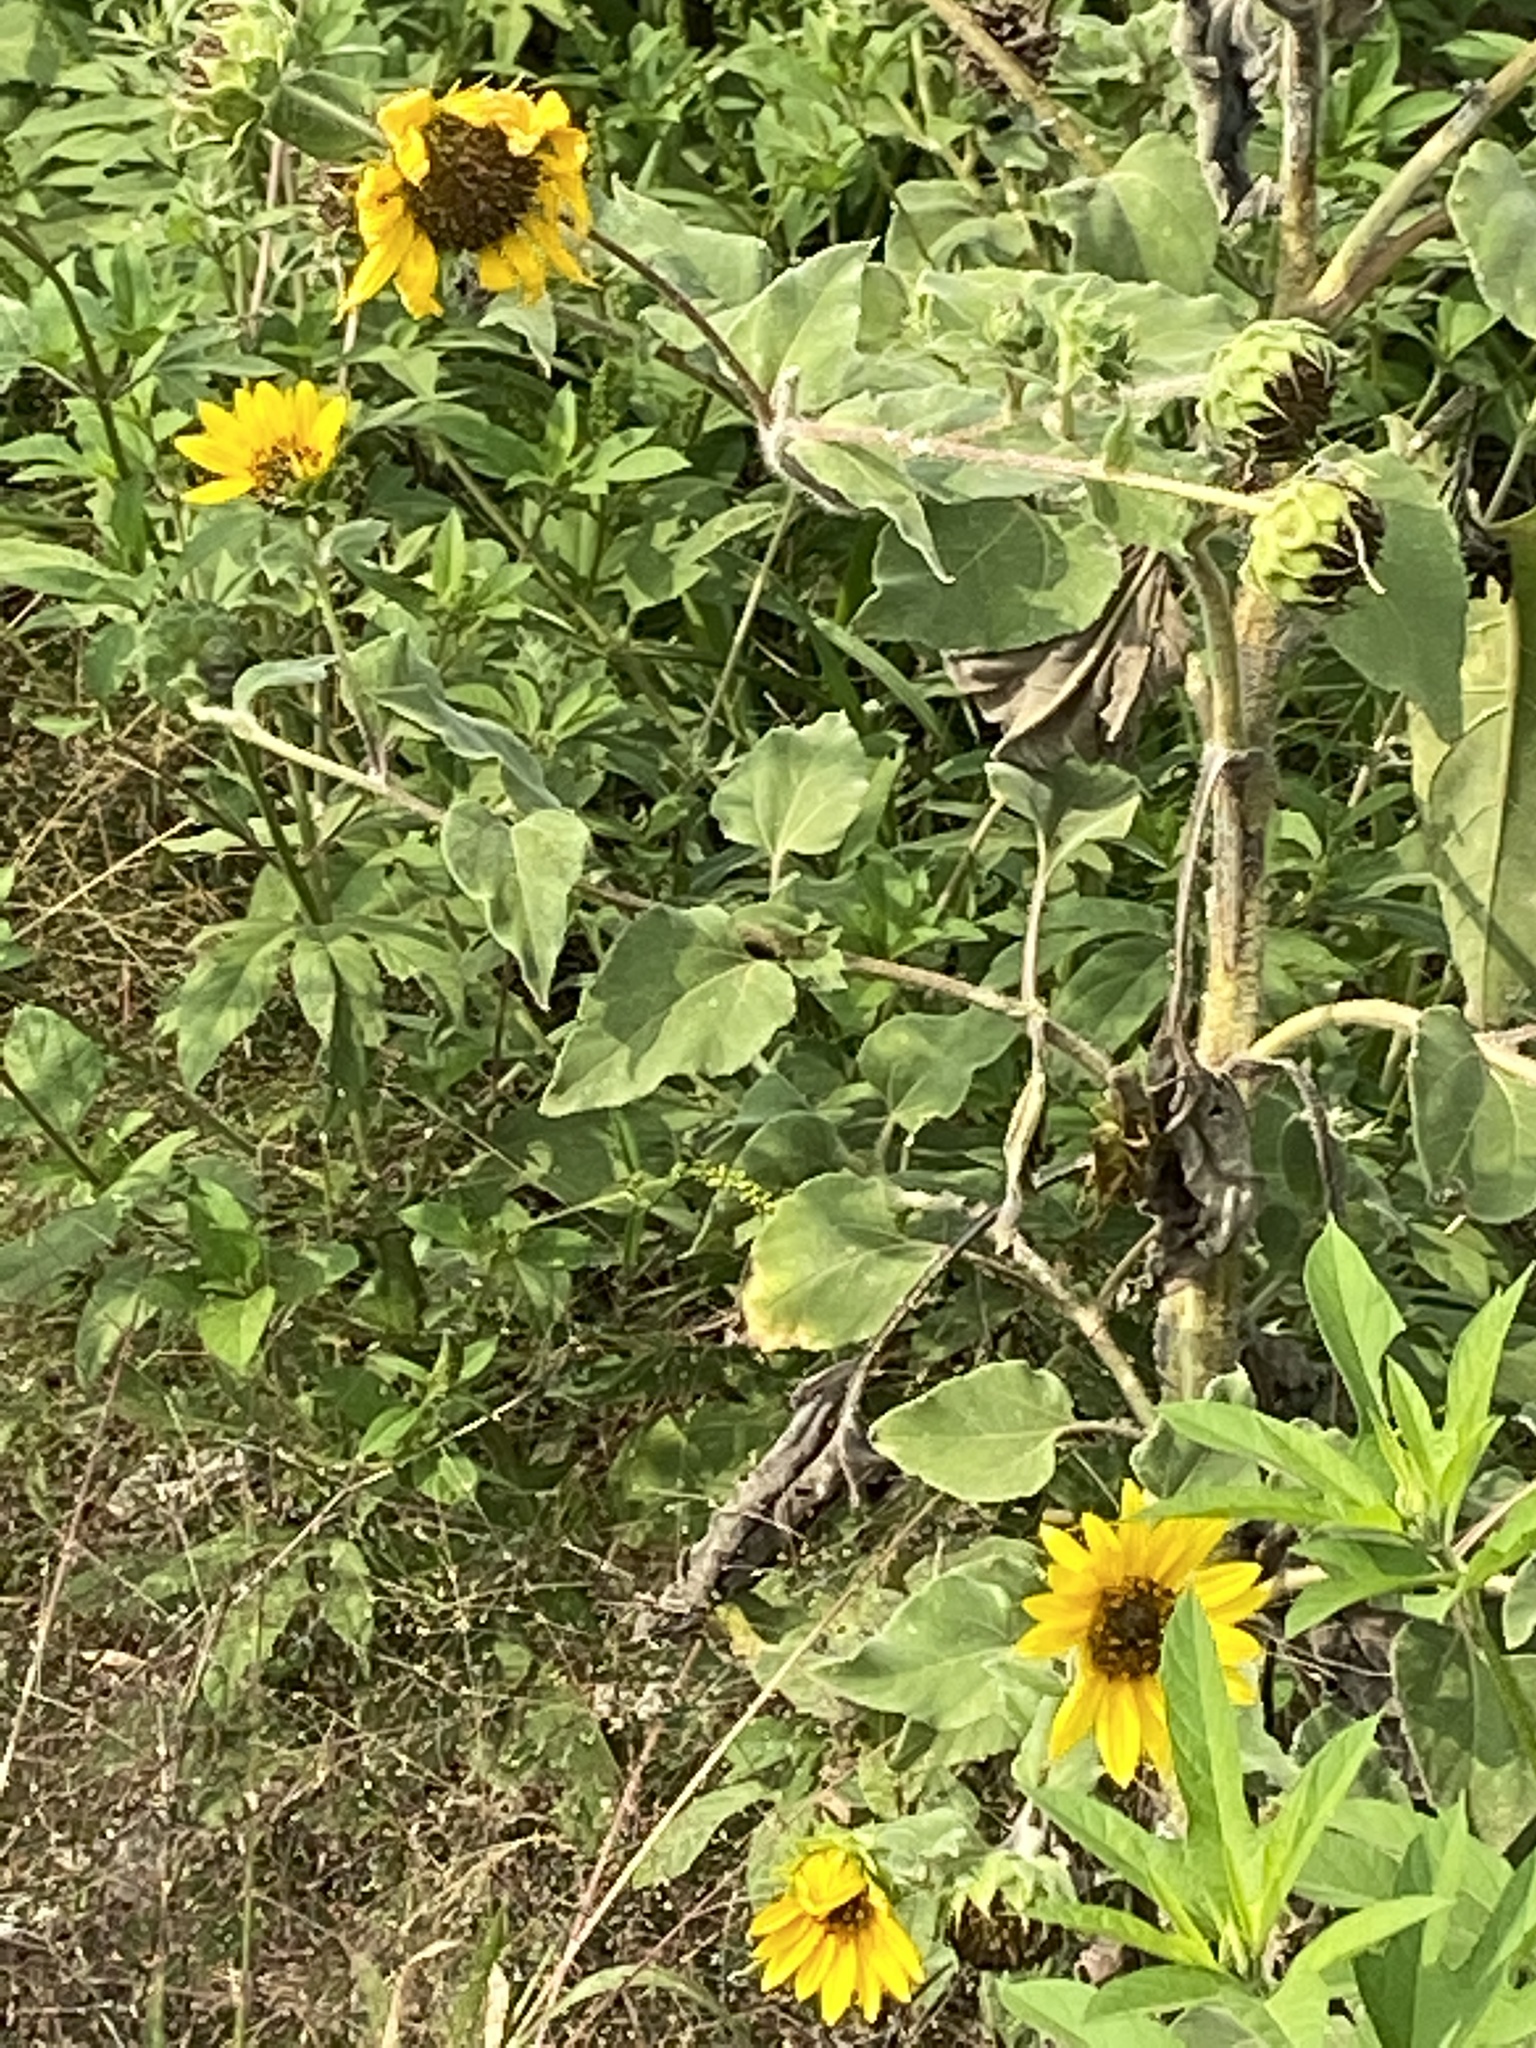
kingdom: Plantae
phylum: Tracheophyta
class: Magnoliopsida
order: Asterales
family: Asteraceae
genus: Helianthus
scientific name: Helianthus annuus
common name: Sunflower
